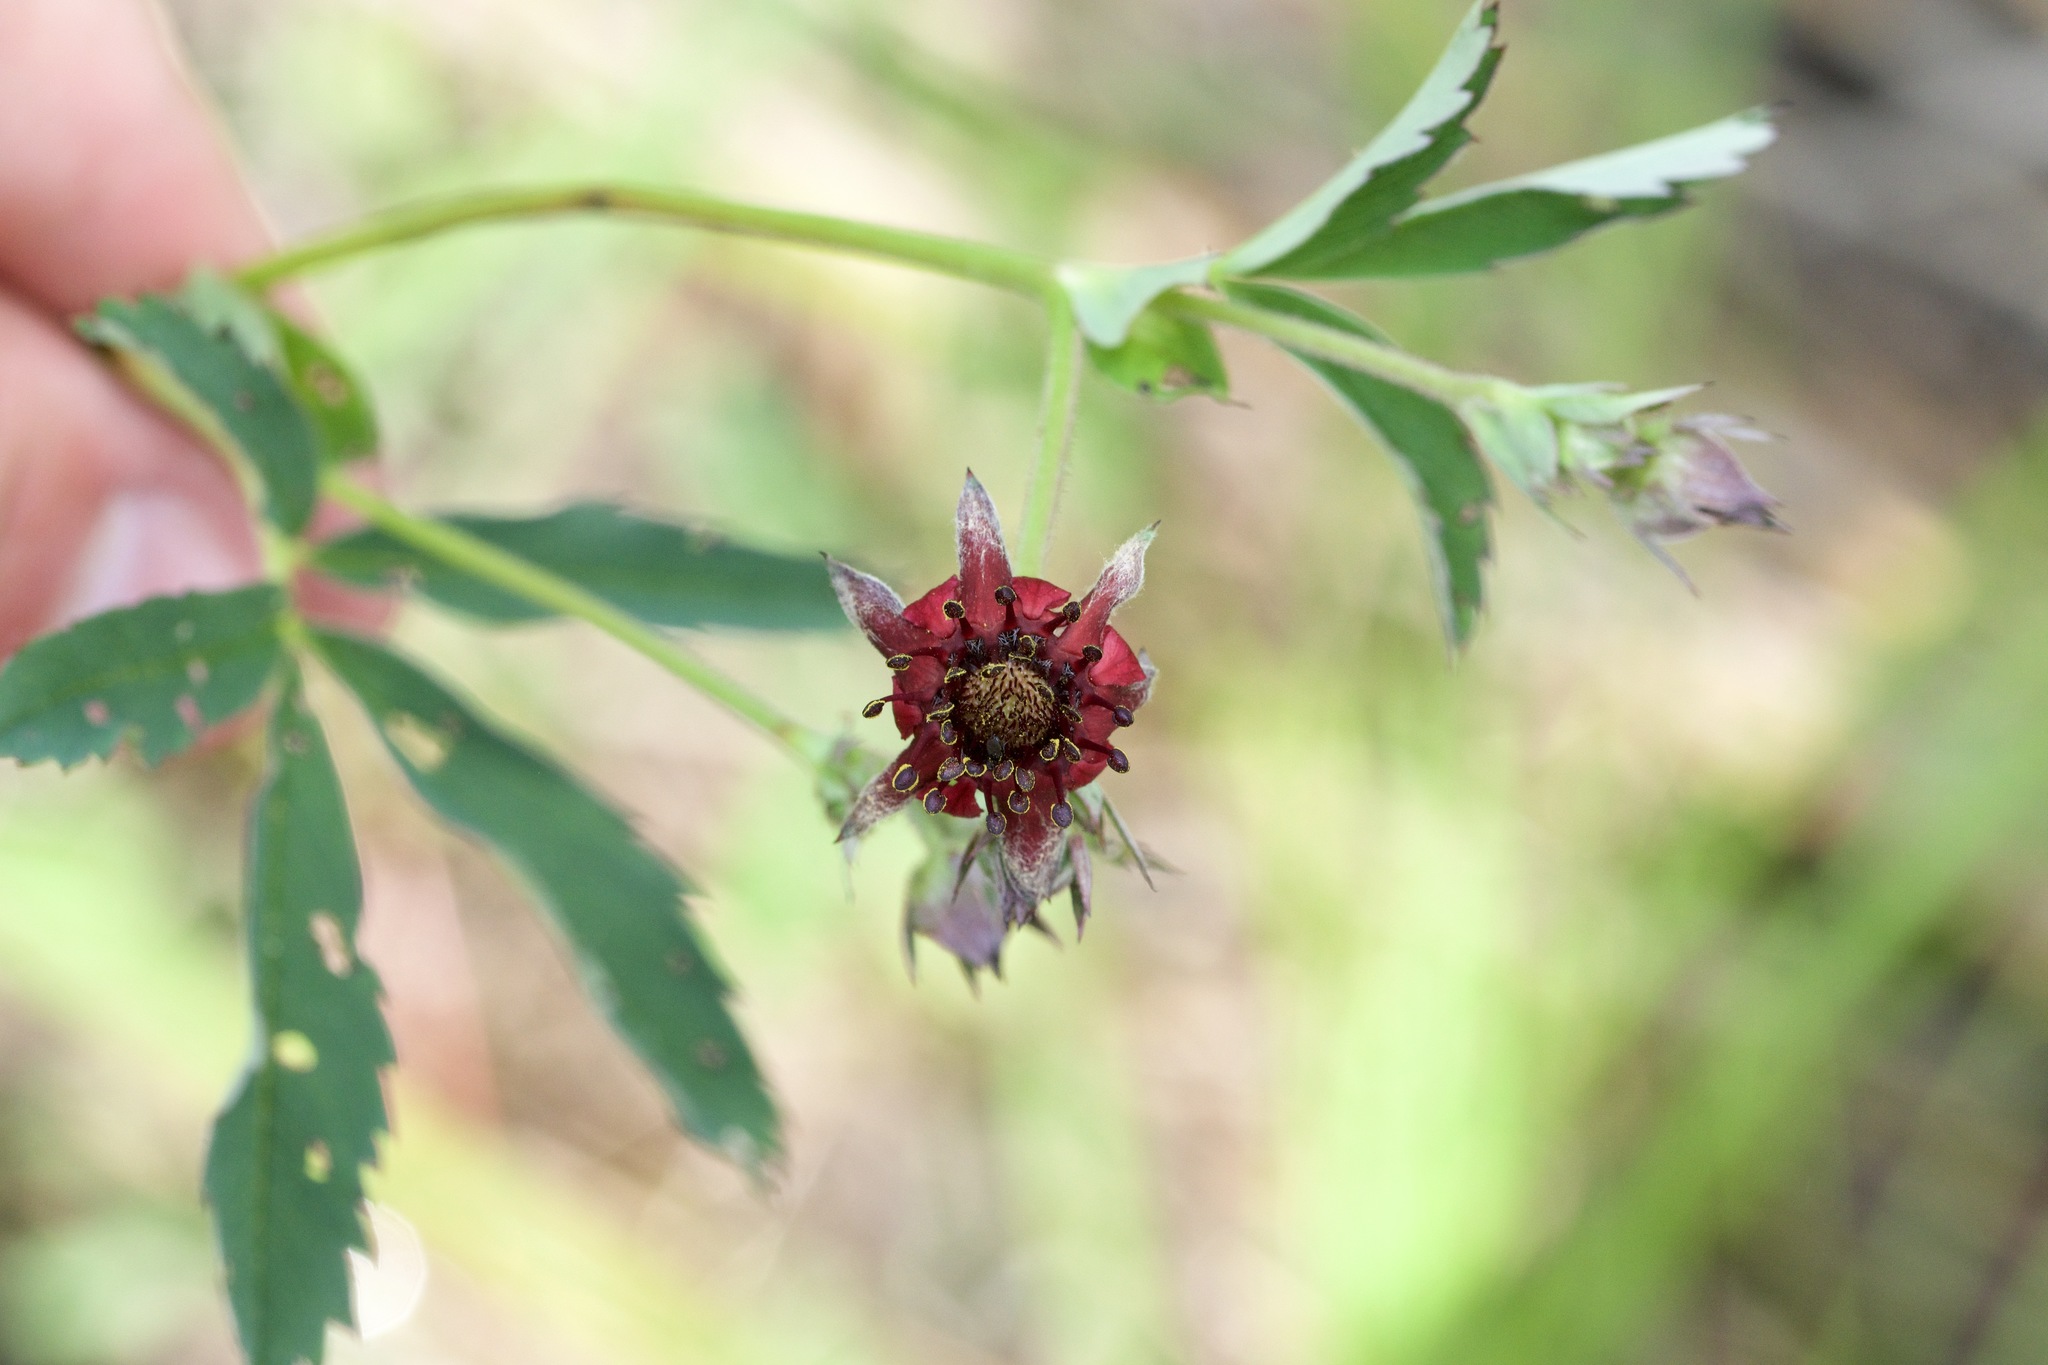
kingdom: Plantae
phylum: Tracheophyta
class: Magnoliopsida
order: Rosales
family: Rosaceae
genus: Comarum
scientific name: Comarum palustre
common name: Marsh cinquefoil
